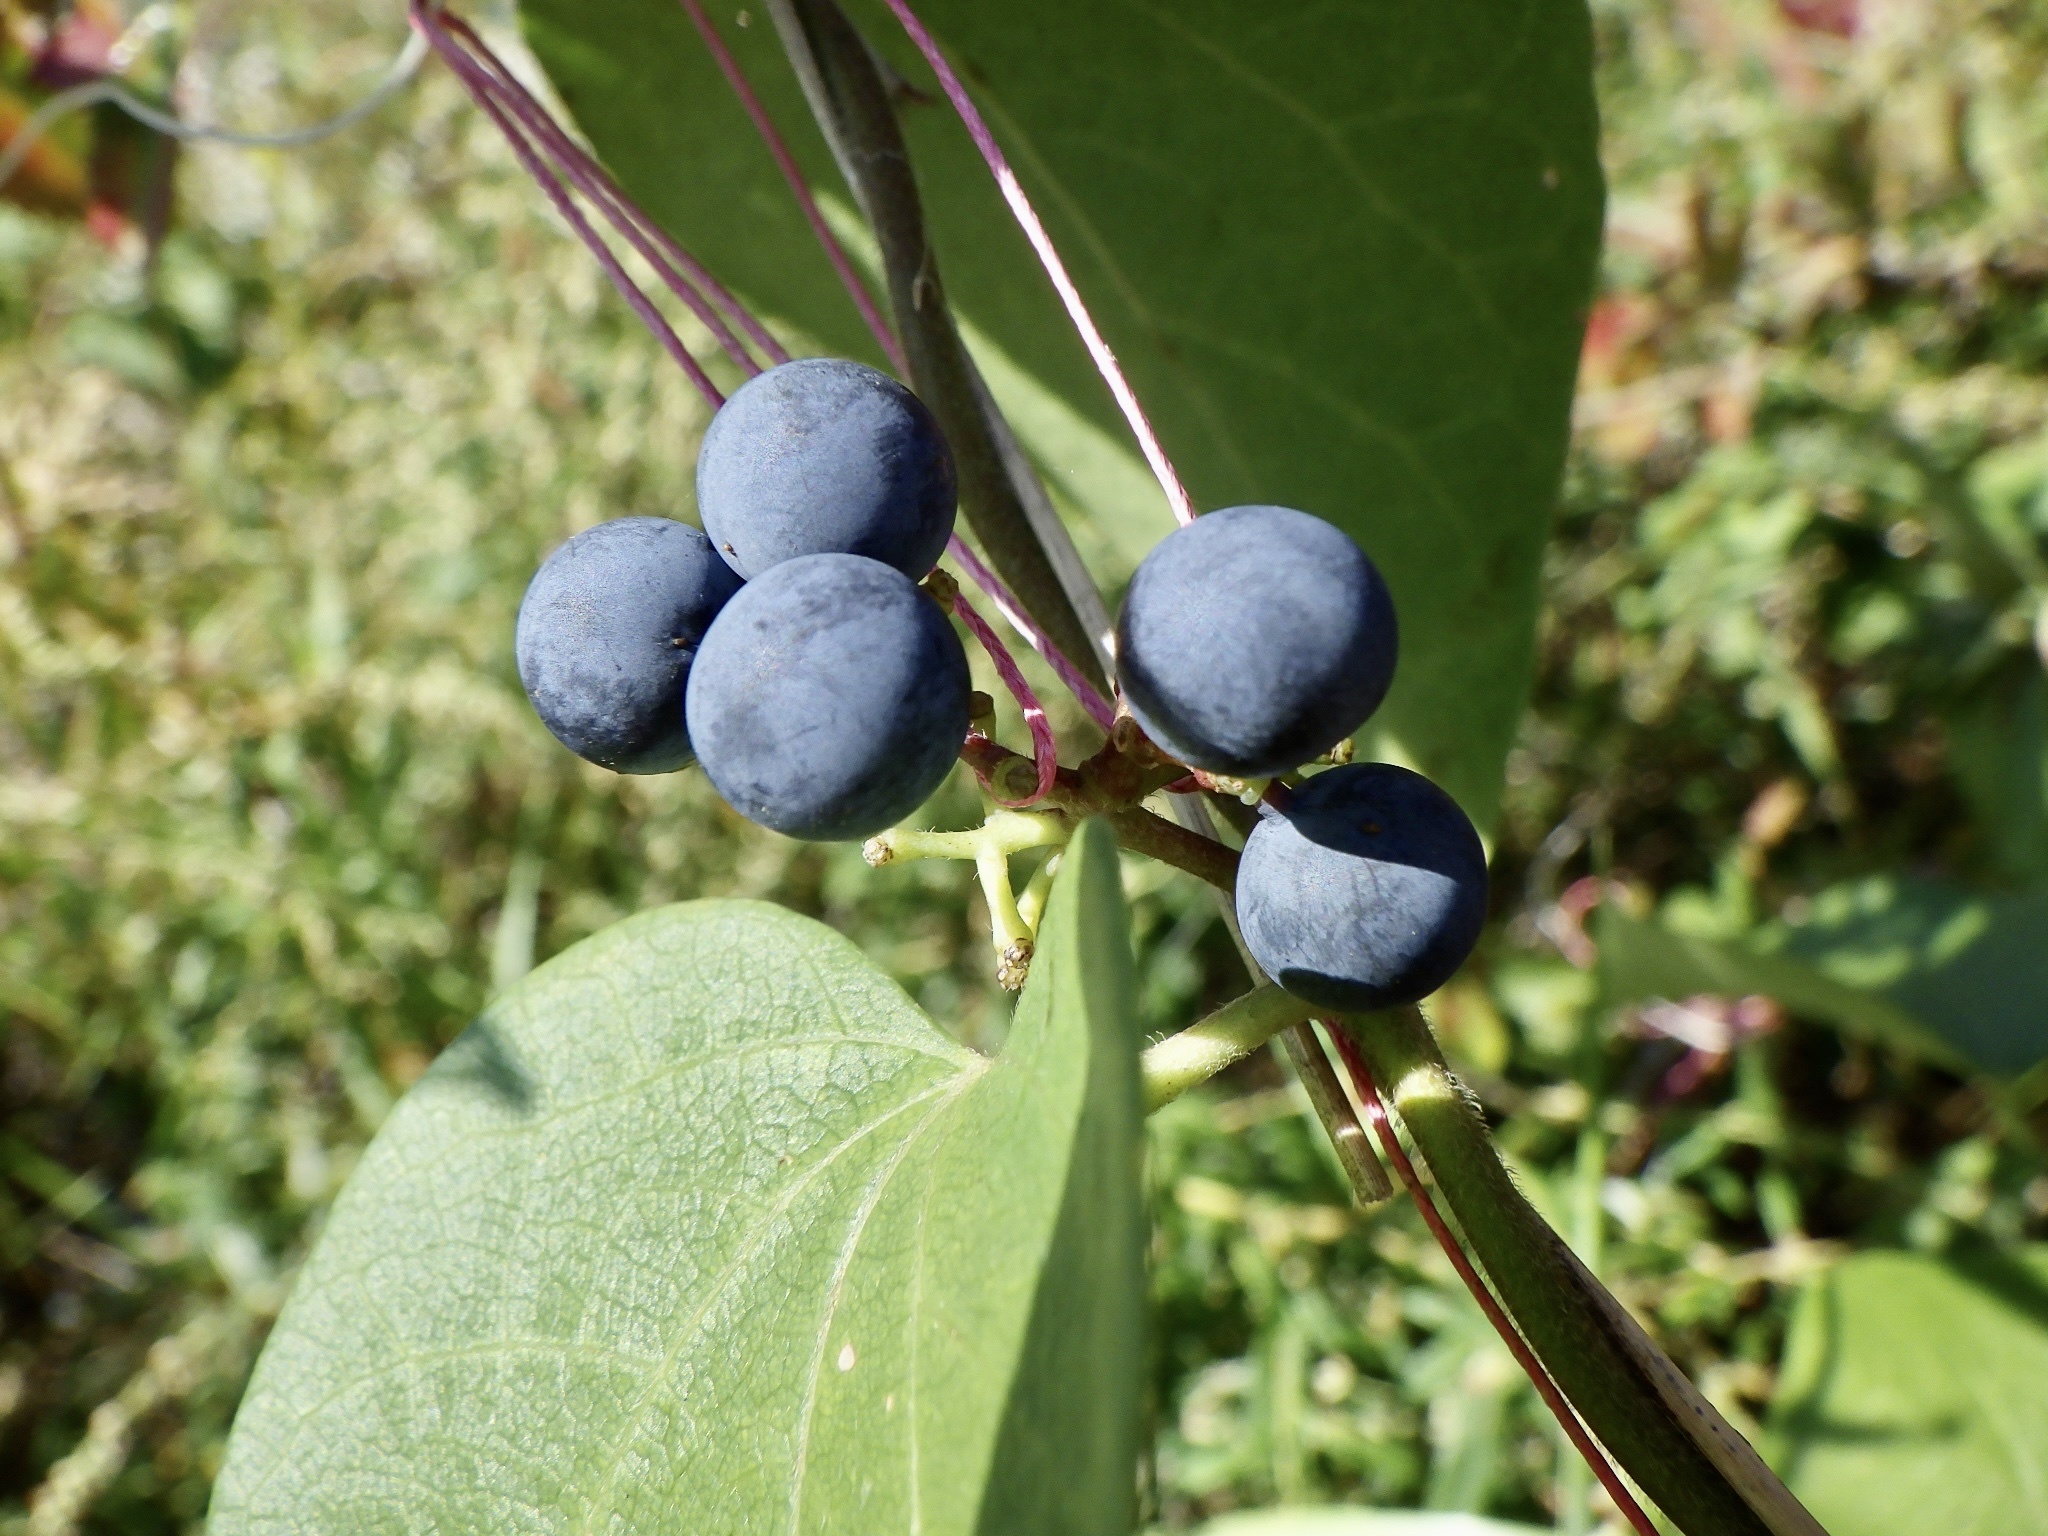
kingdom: Plantae
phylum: Tracheophyta
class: Magnoliopsida
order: Ranunculales
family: Menispermaceae
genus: Cocculus
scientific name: Cocculus orbiculatus
